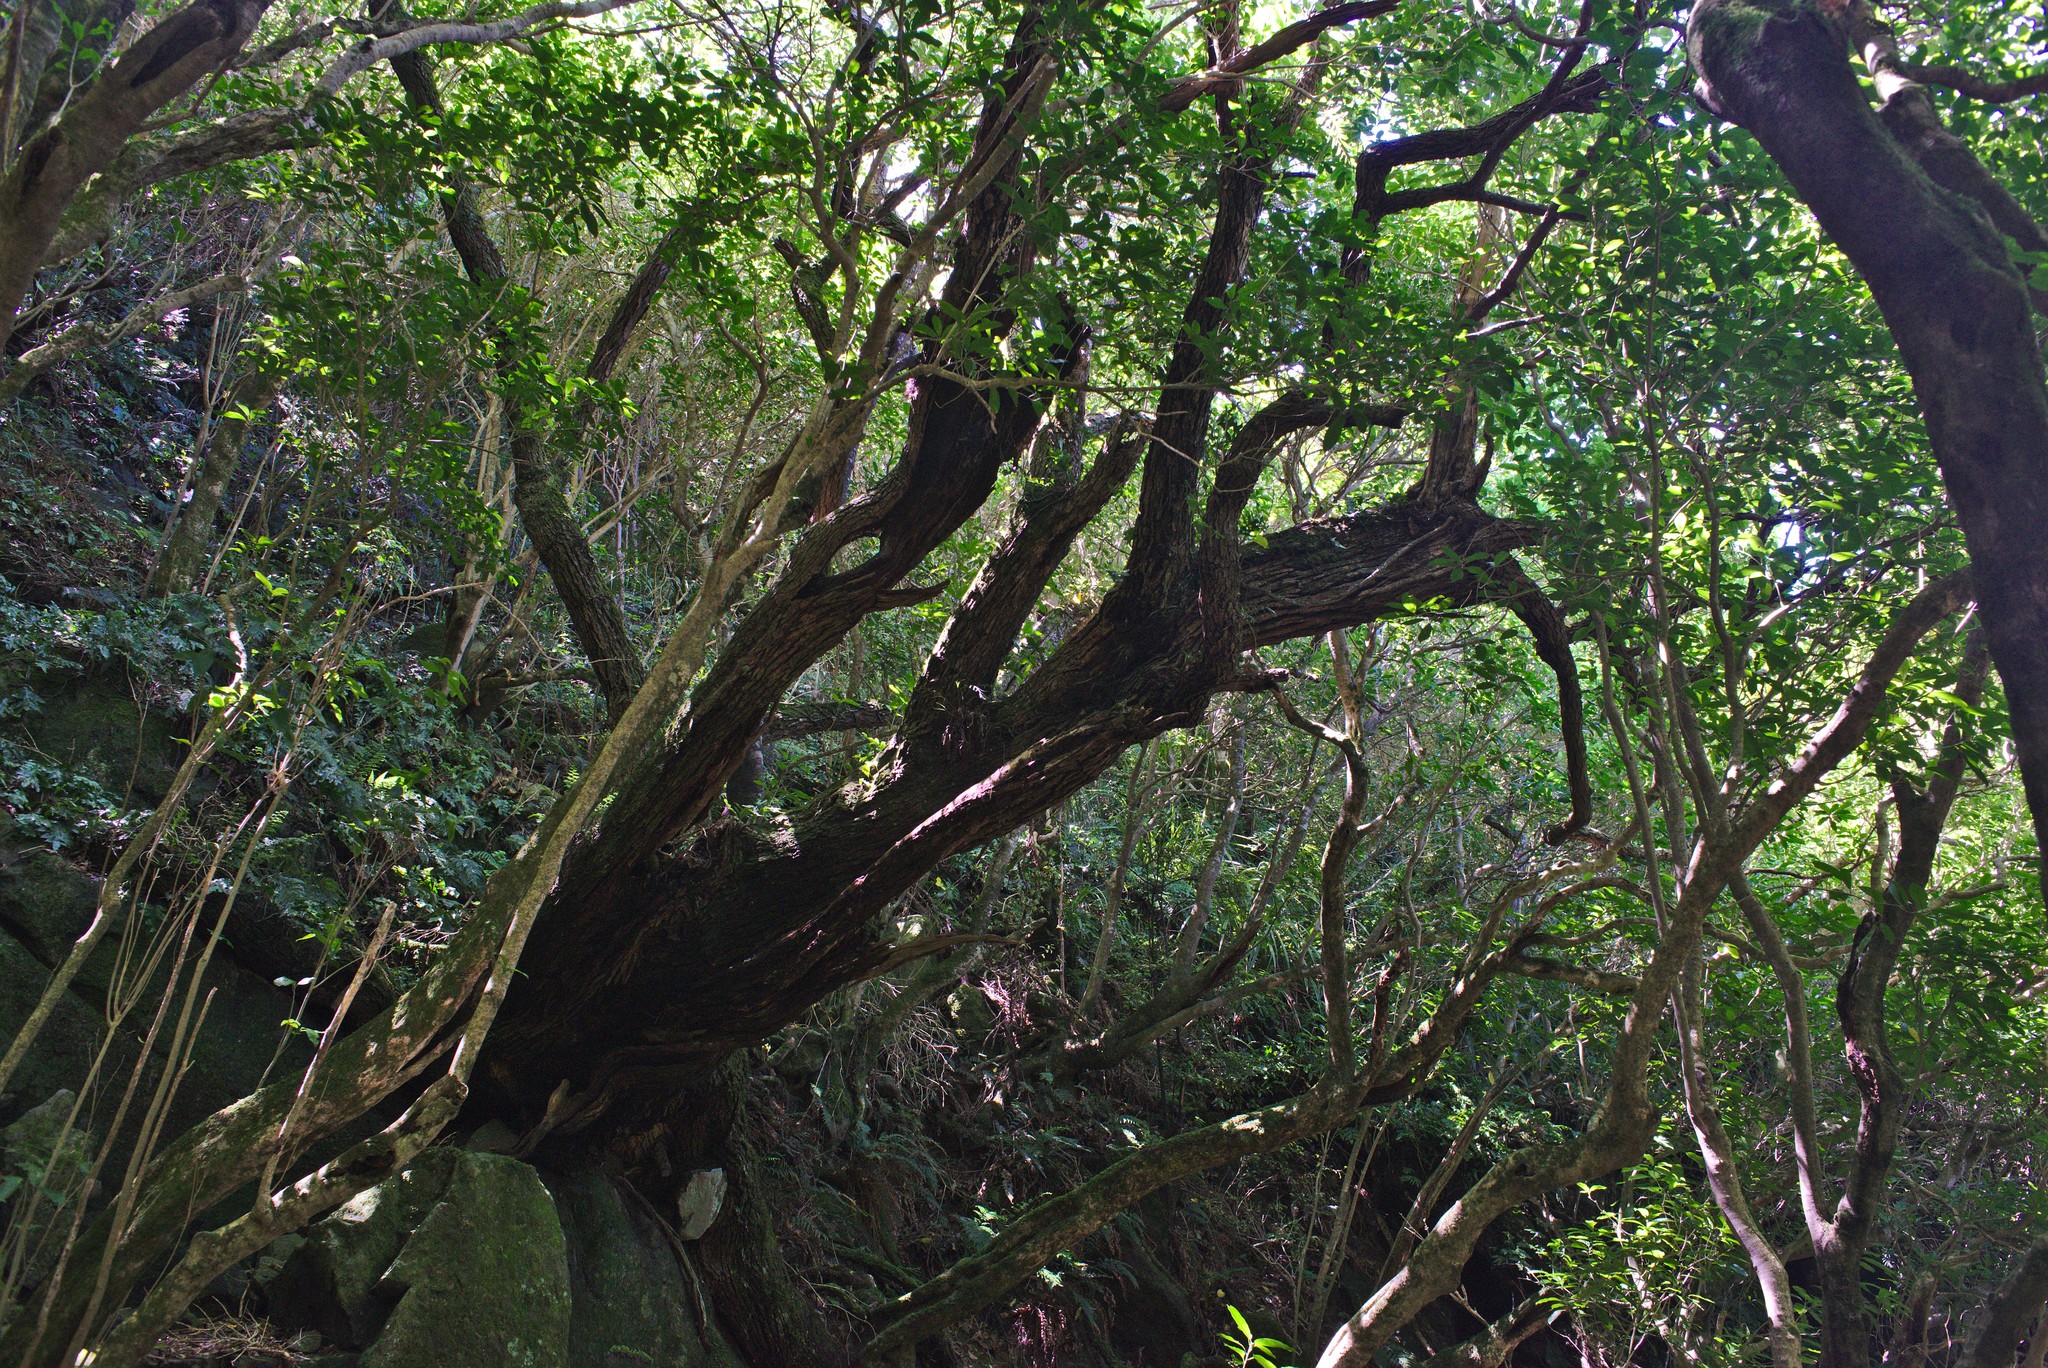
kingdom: Plantae
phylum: Tracheophyta
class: Magnoliopsida
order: Apiales
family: Griseliniaceae
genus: Griselinia
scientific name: Griselinia littoralis
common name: New zealand broadleaf
